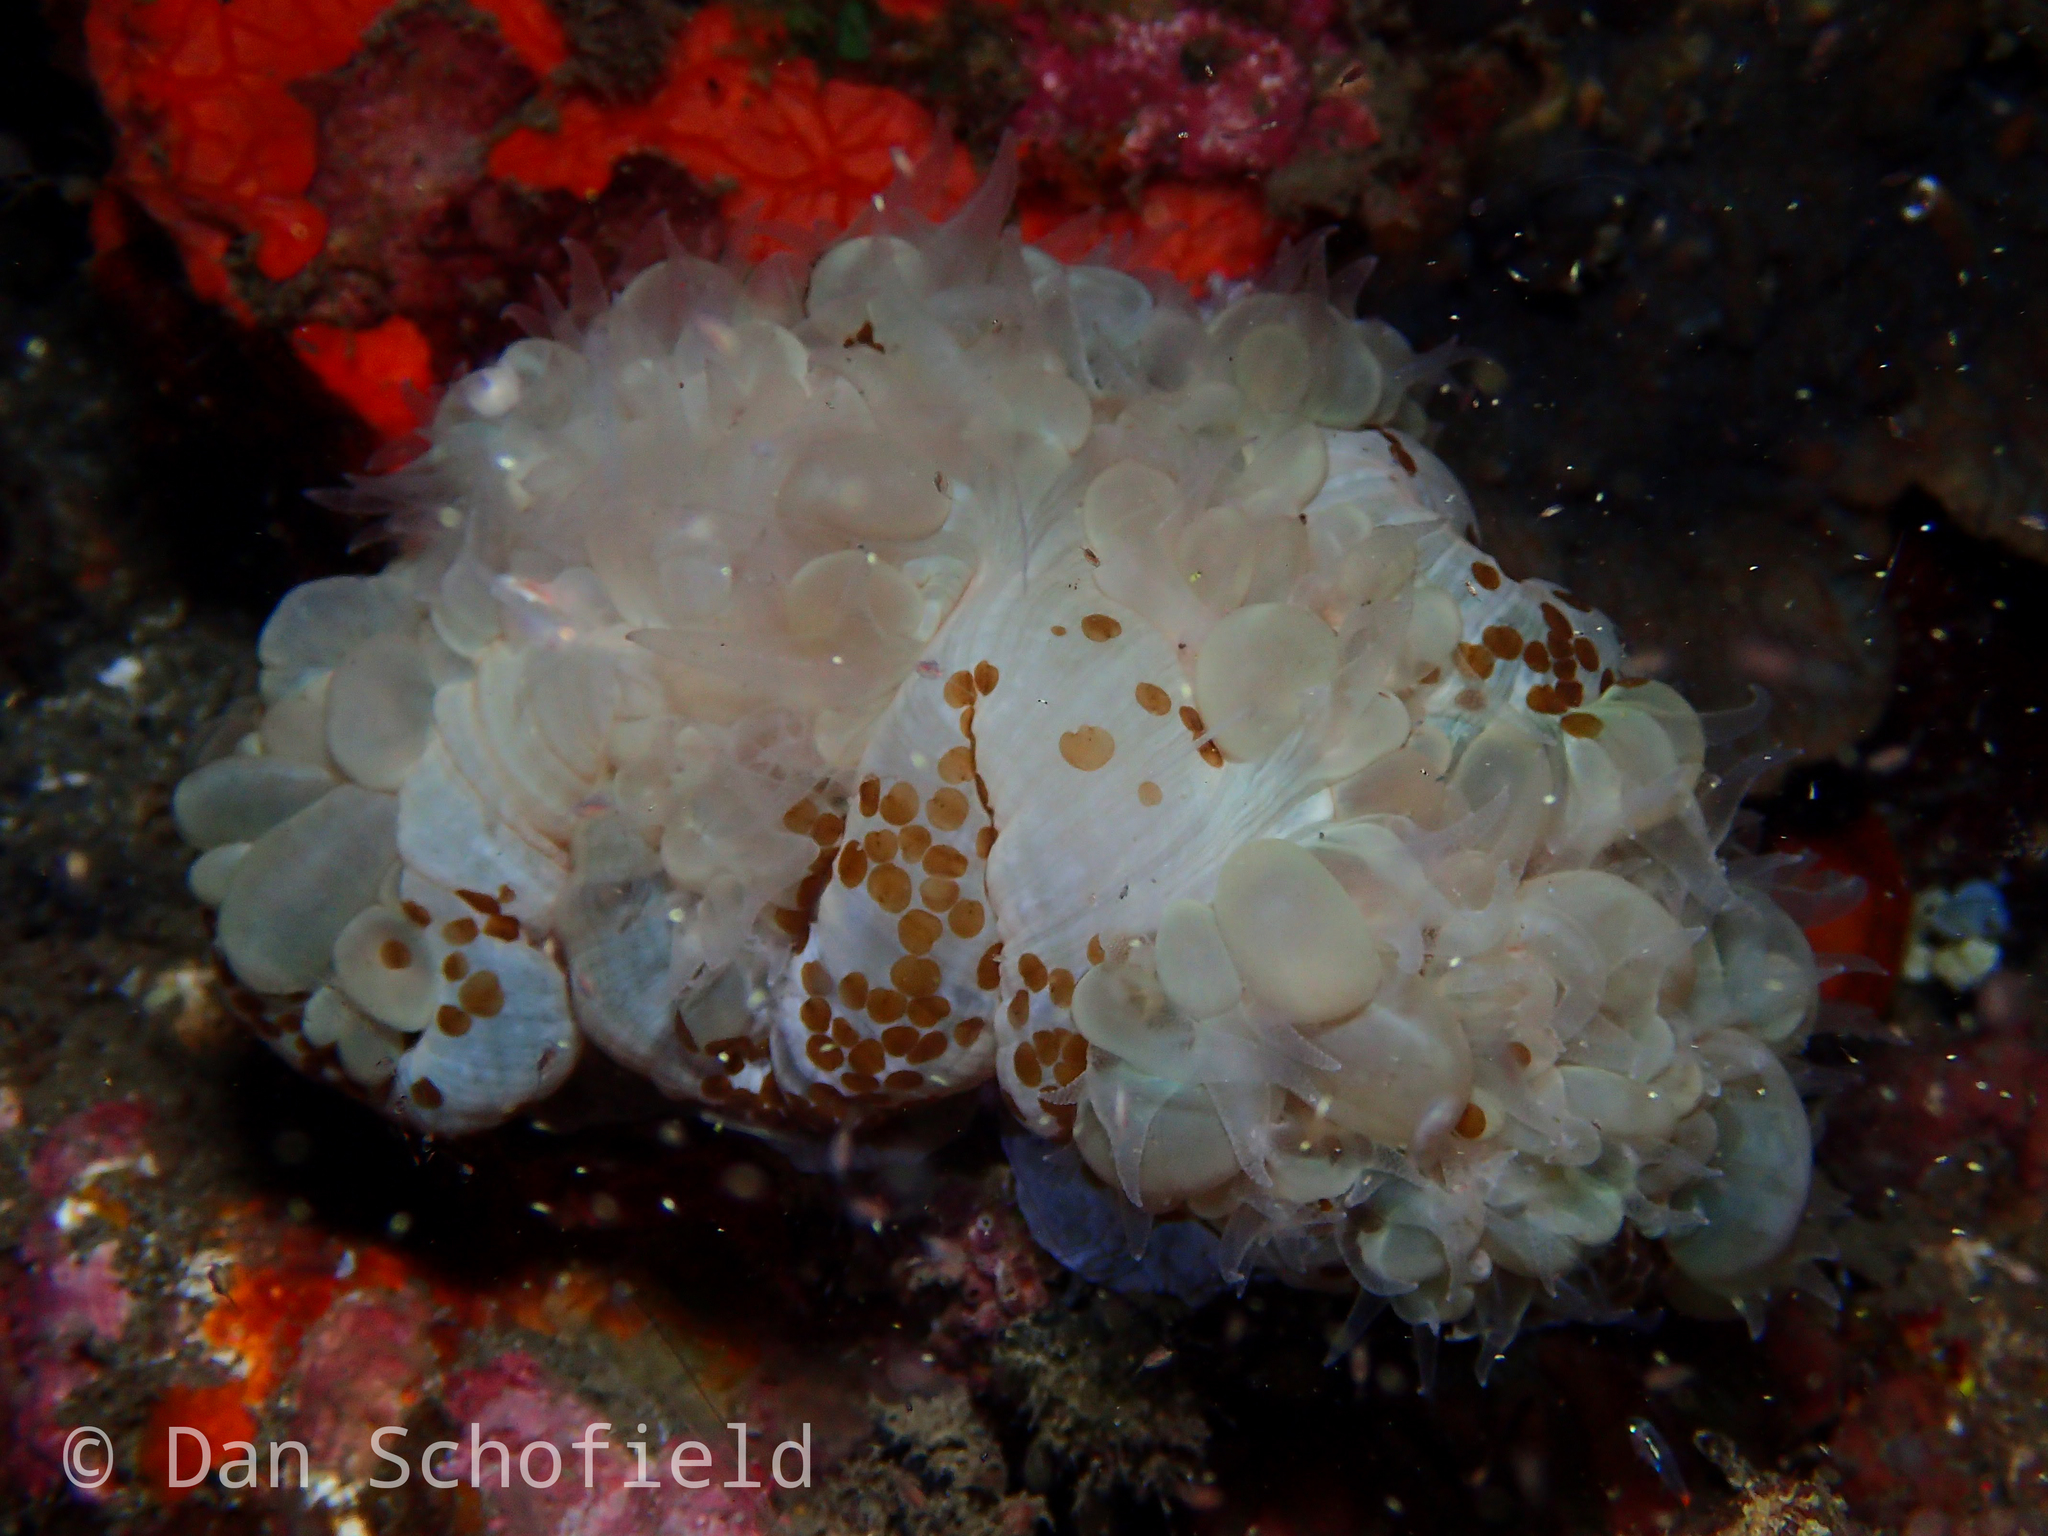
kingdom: Animalia
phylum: Cnidaria
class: Anthozoa
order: Scleractinia
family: Plerogyridae
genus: Plerogyra
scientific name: Plerogyra sinuosa
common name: Bubble coral
